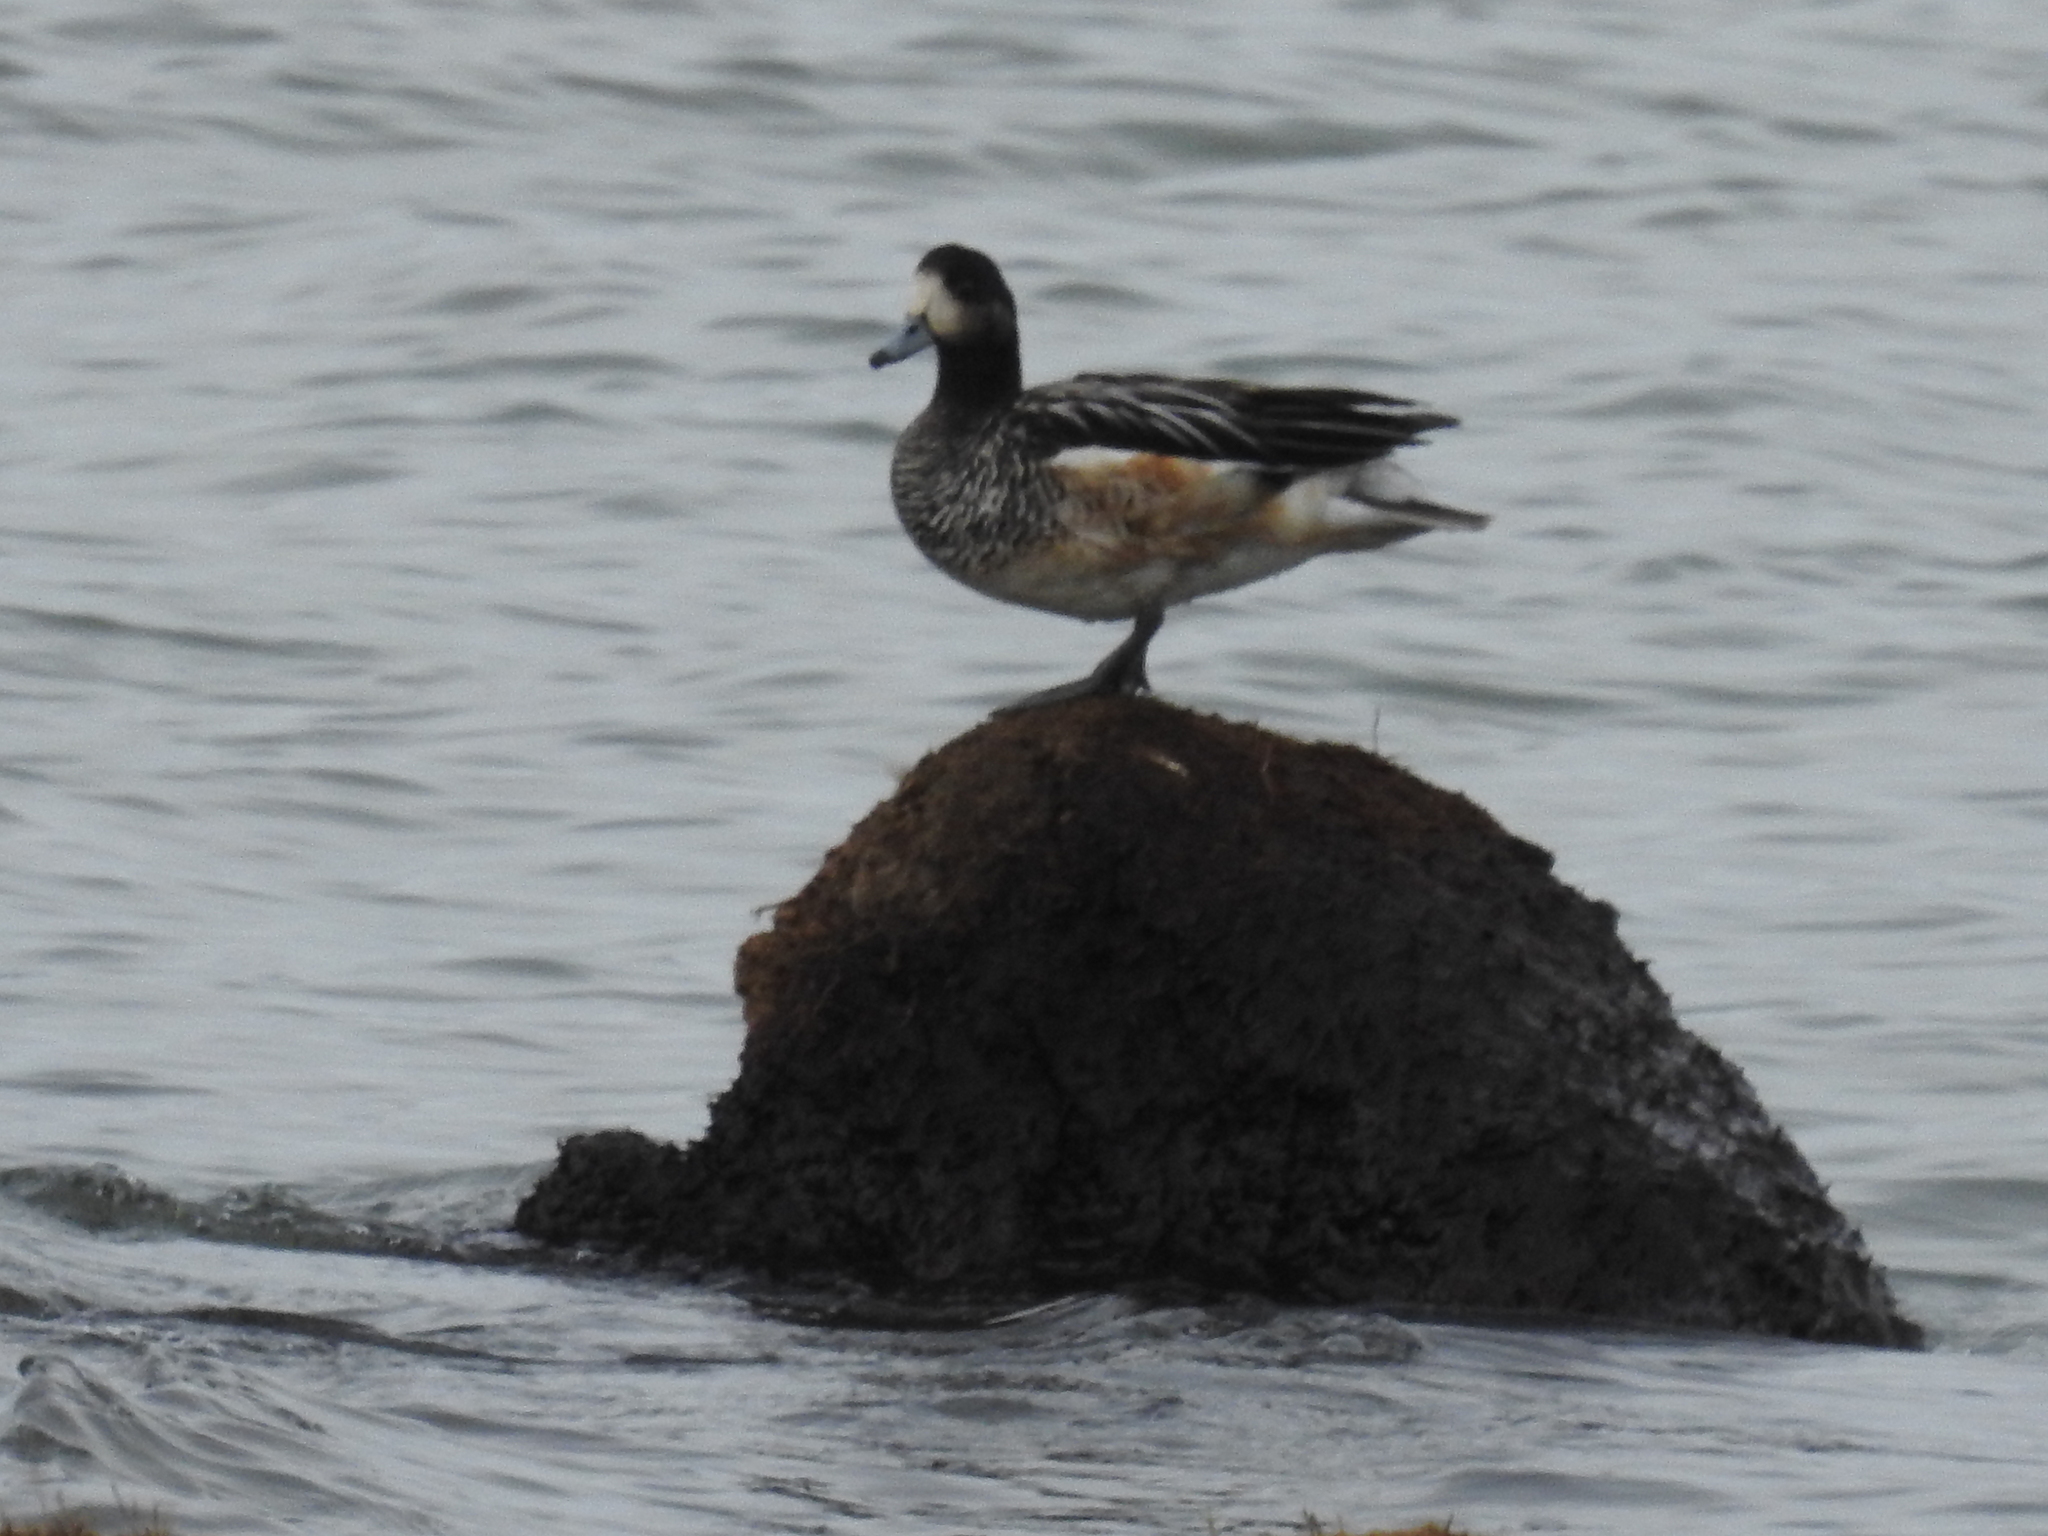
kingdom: Animalia
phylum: Chordata
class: Aves
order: Anseriformes
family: Anatidae
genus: Mareca
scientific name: Mareca sibilatrix
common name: Chiloe wigeon
